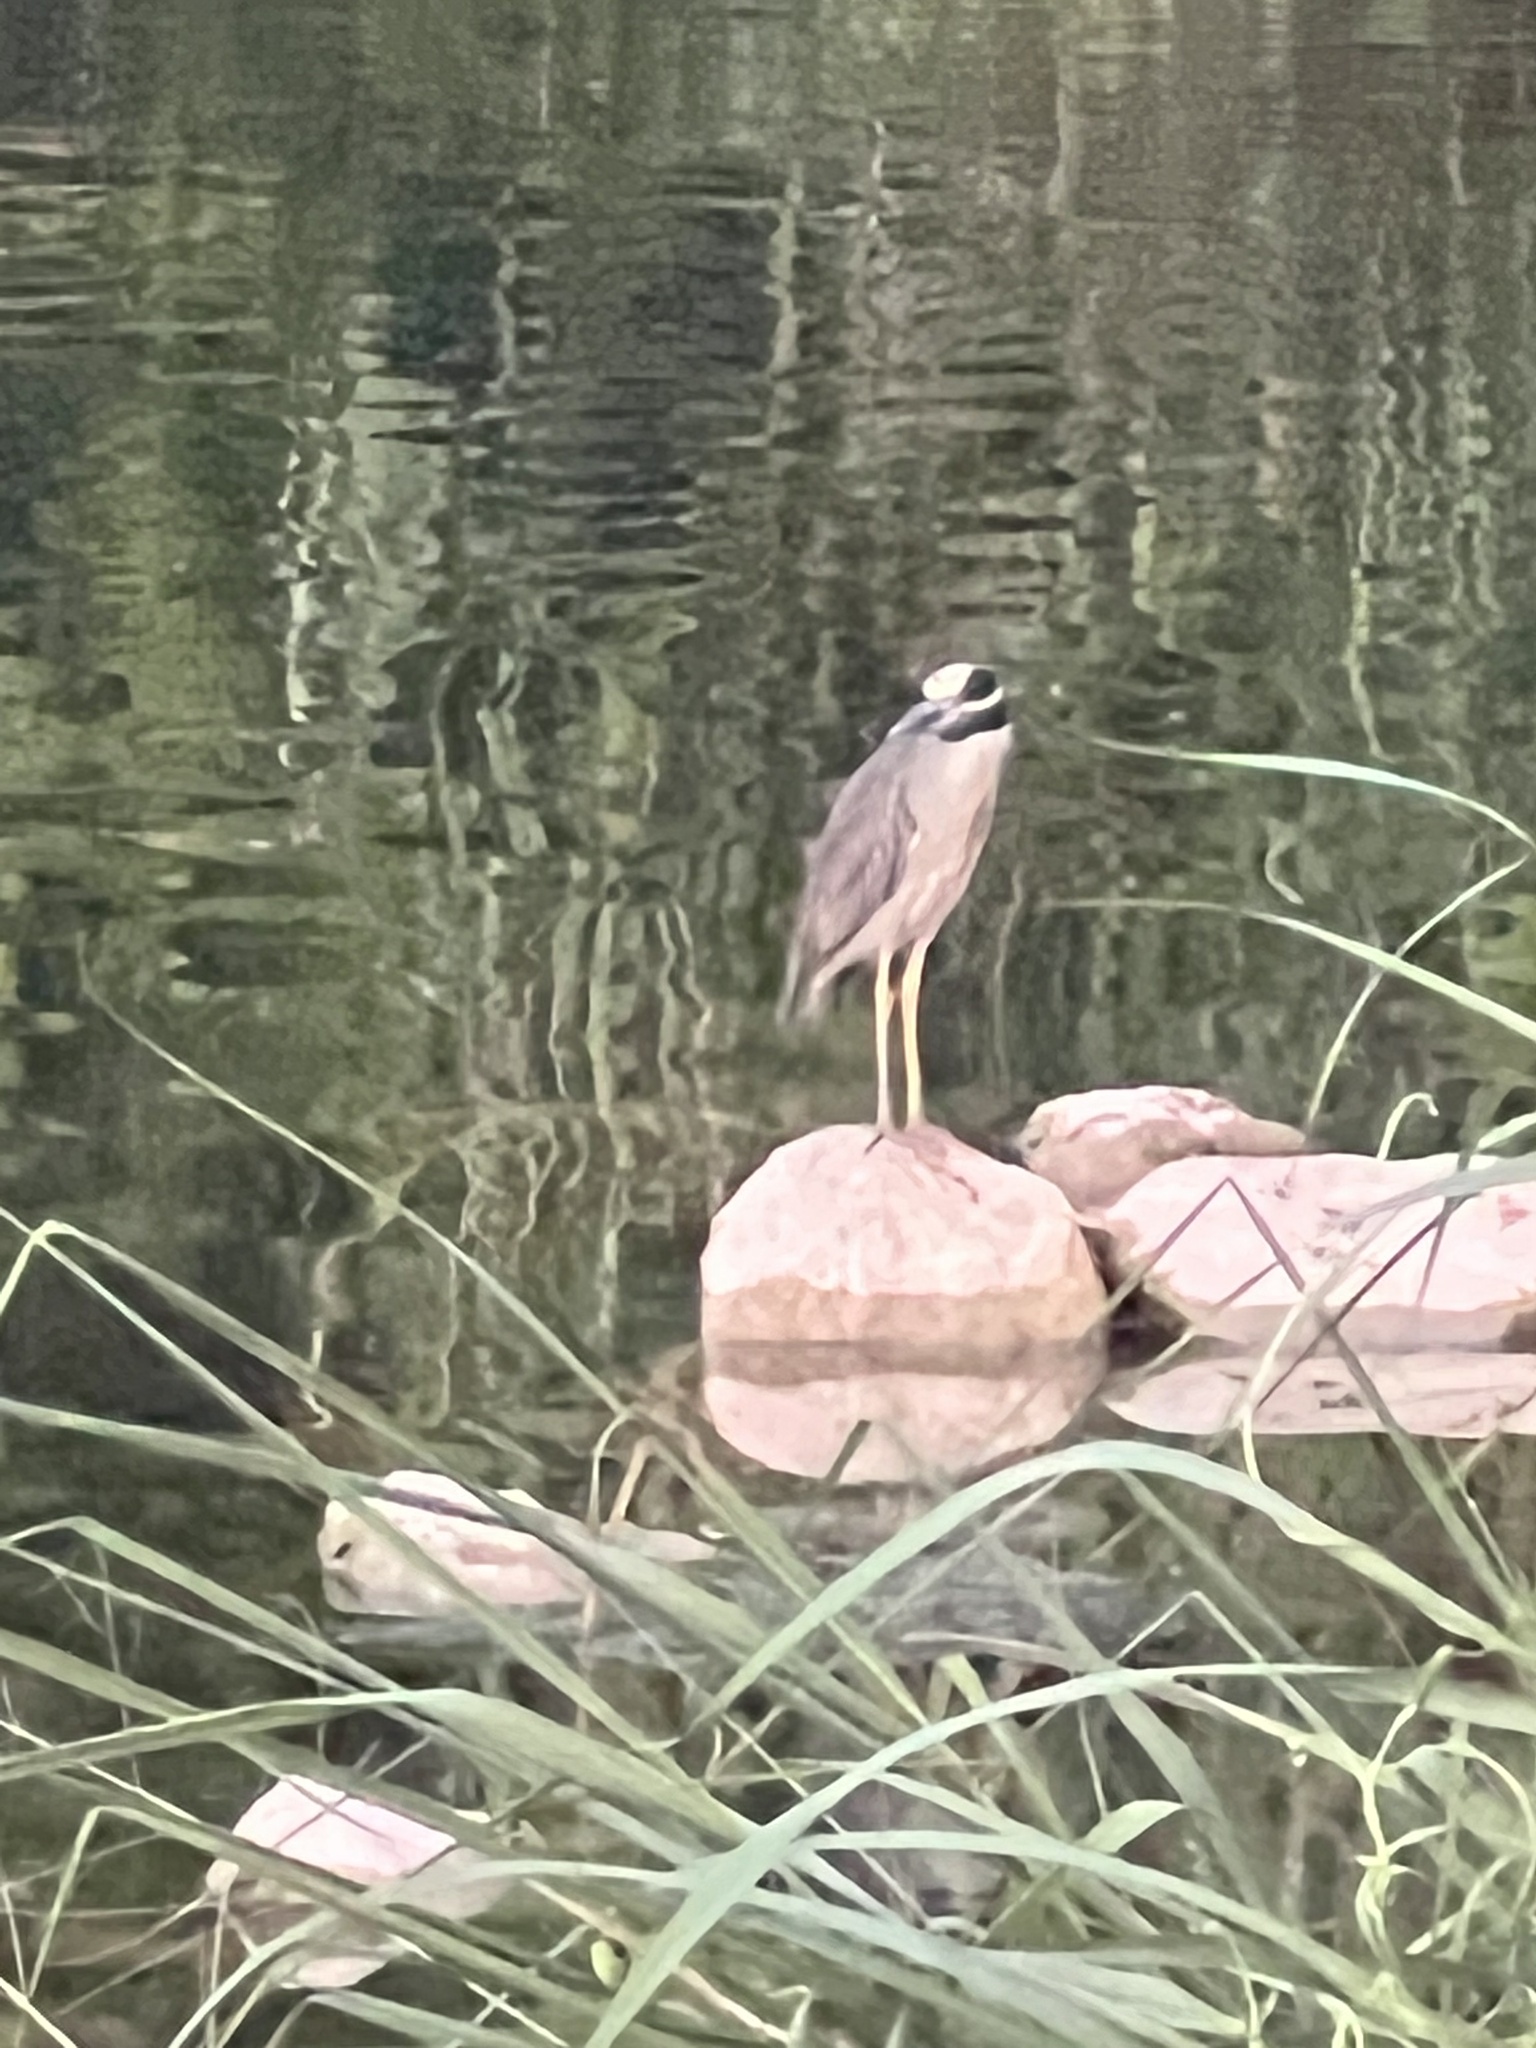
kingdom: Animalia
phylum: Chordata
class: Aves
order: Pelecaniformes
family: Ardeidae
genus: Nyctanassa
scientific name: Nyctanassa violacea
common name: Yellow-crowned night heron
